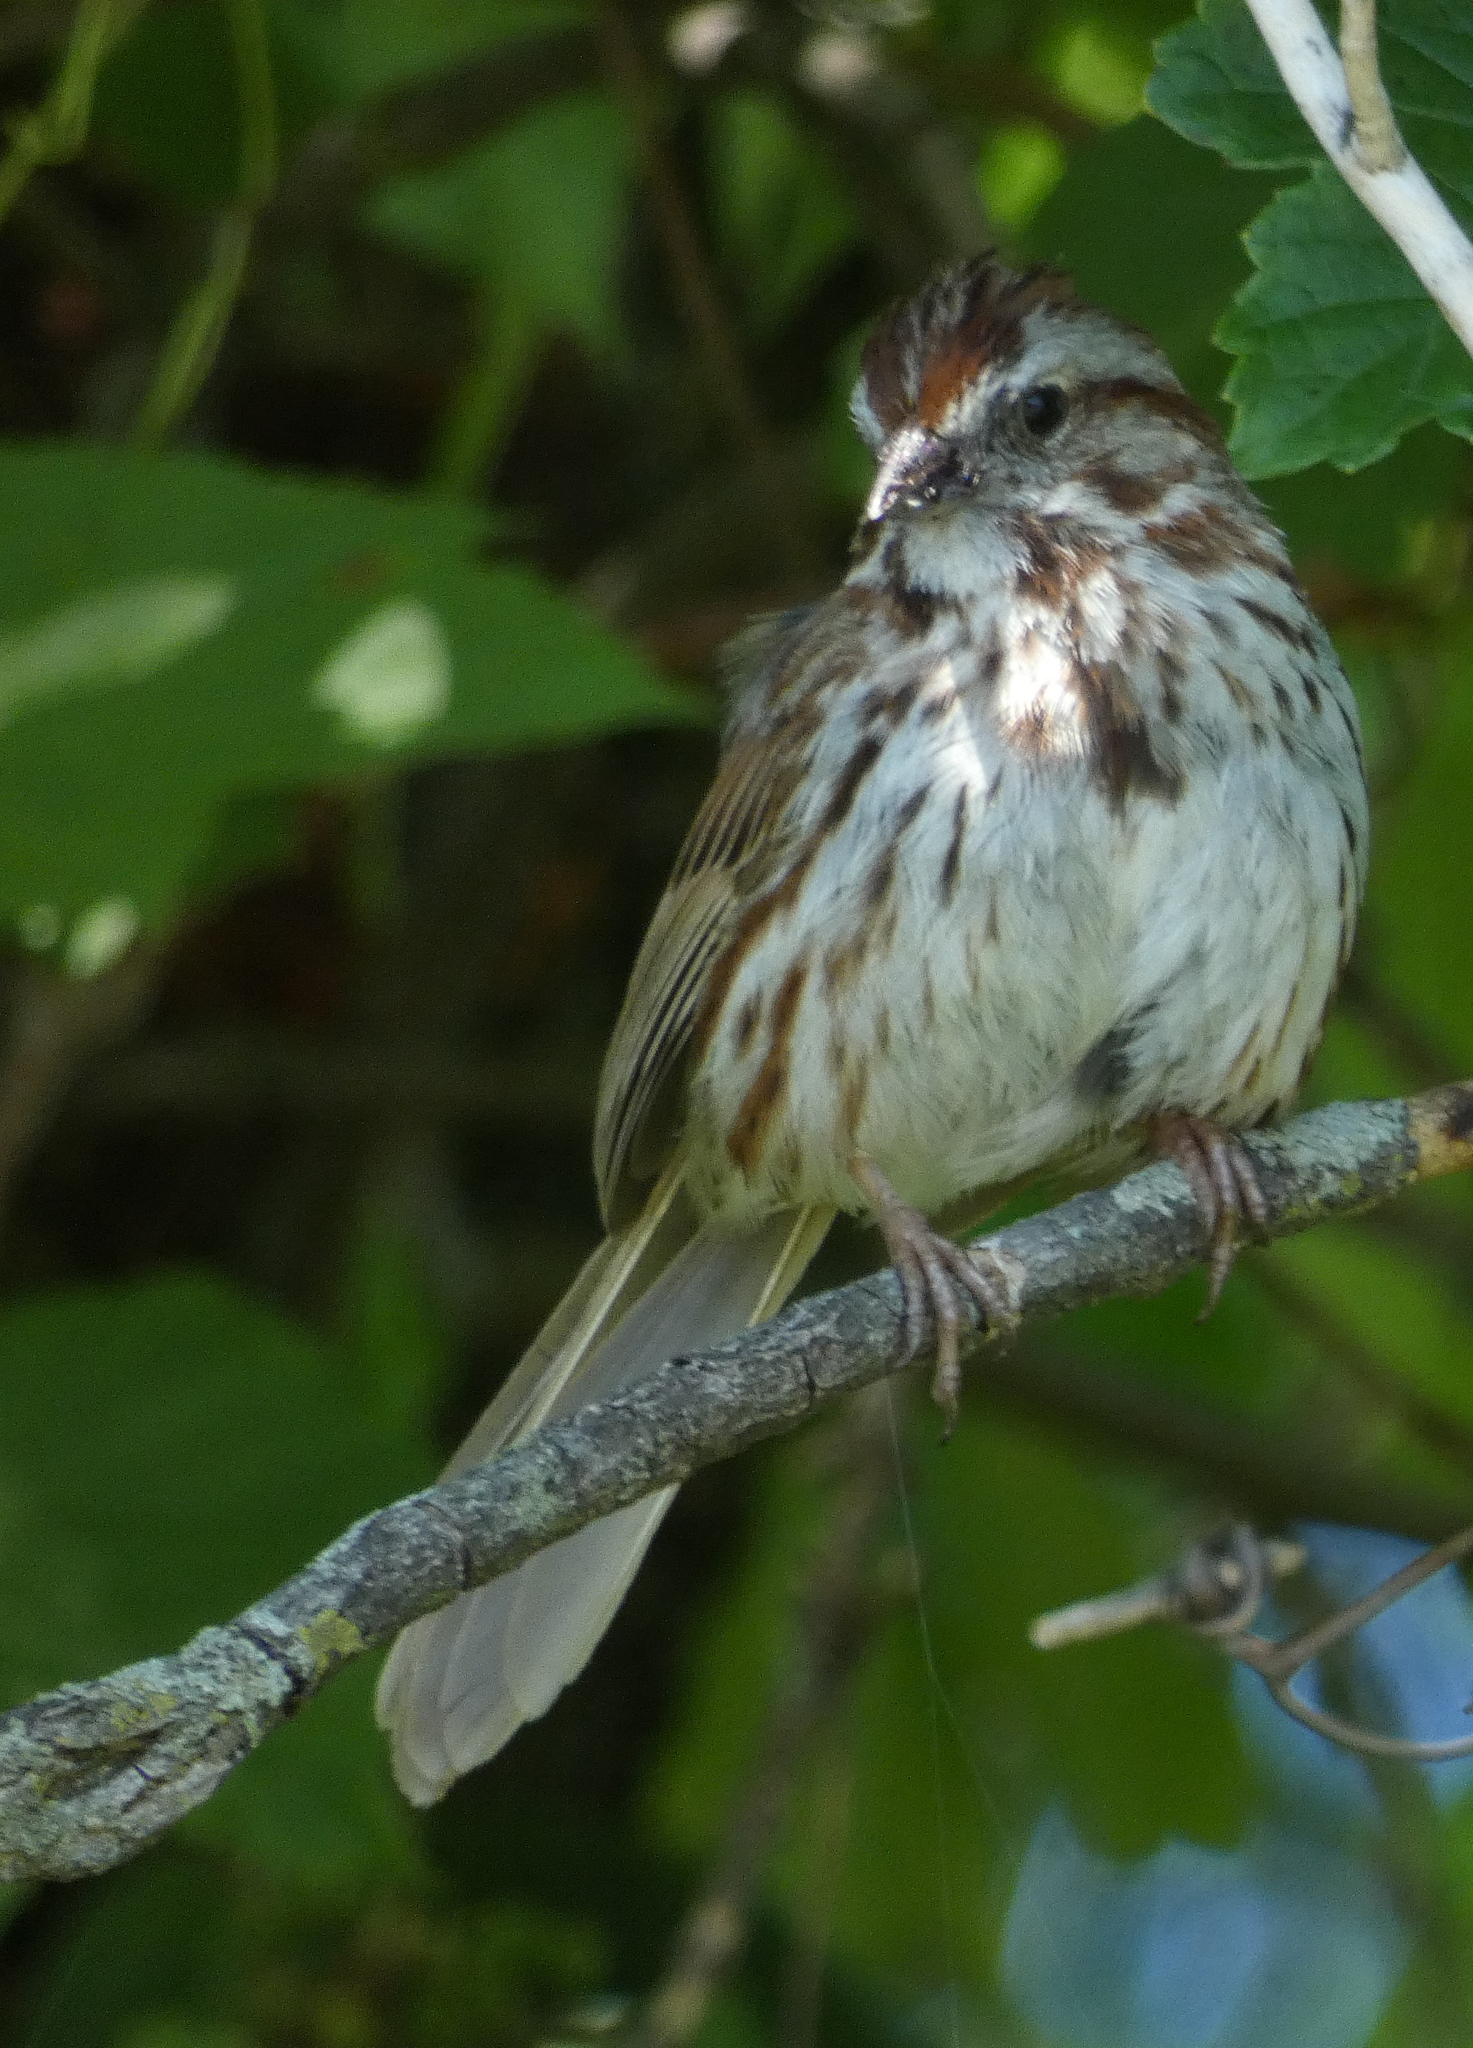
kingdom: Animalia
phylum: Chordata
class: Aves
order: Passeriformes
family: Passerellidae
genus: Melospiza
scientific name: Melospiza melodia
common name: Song sparrow
